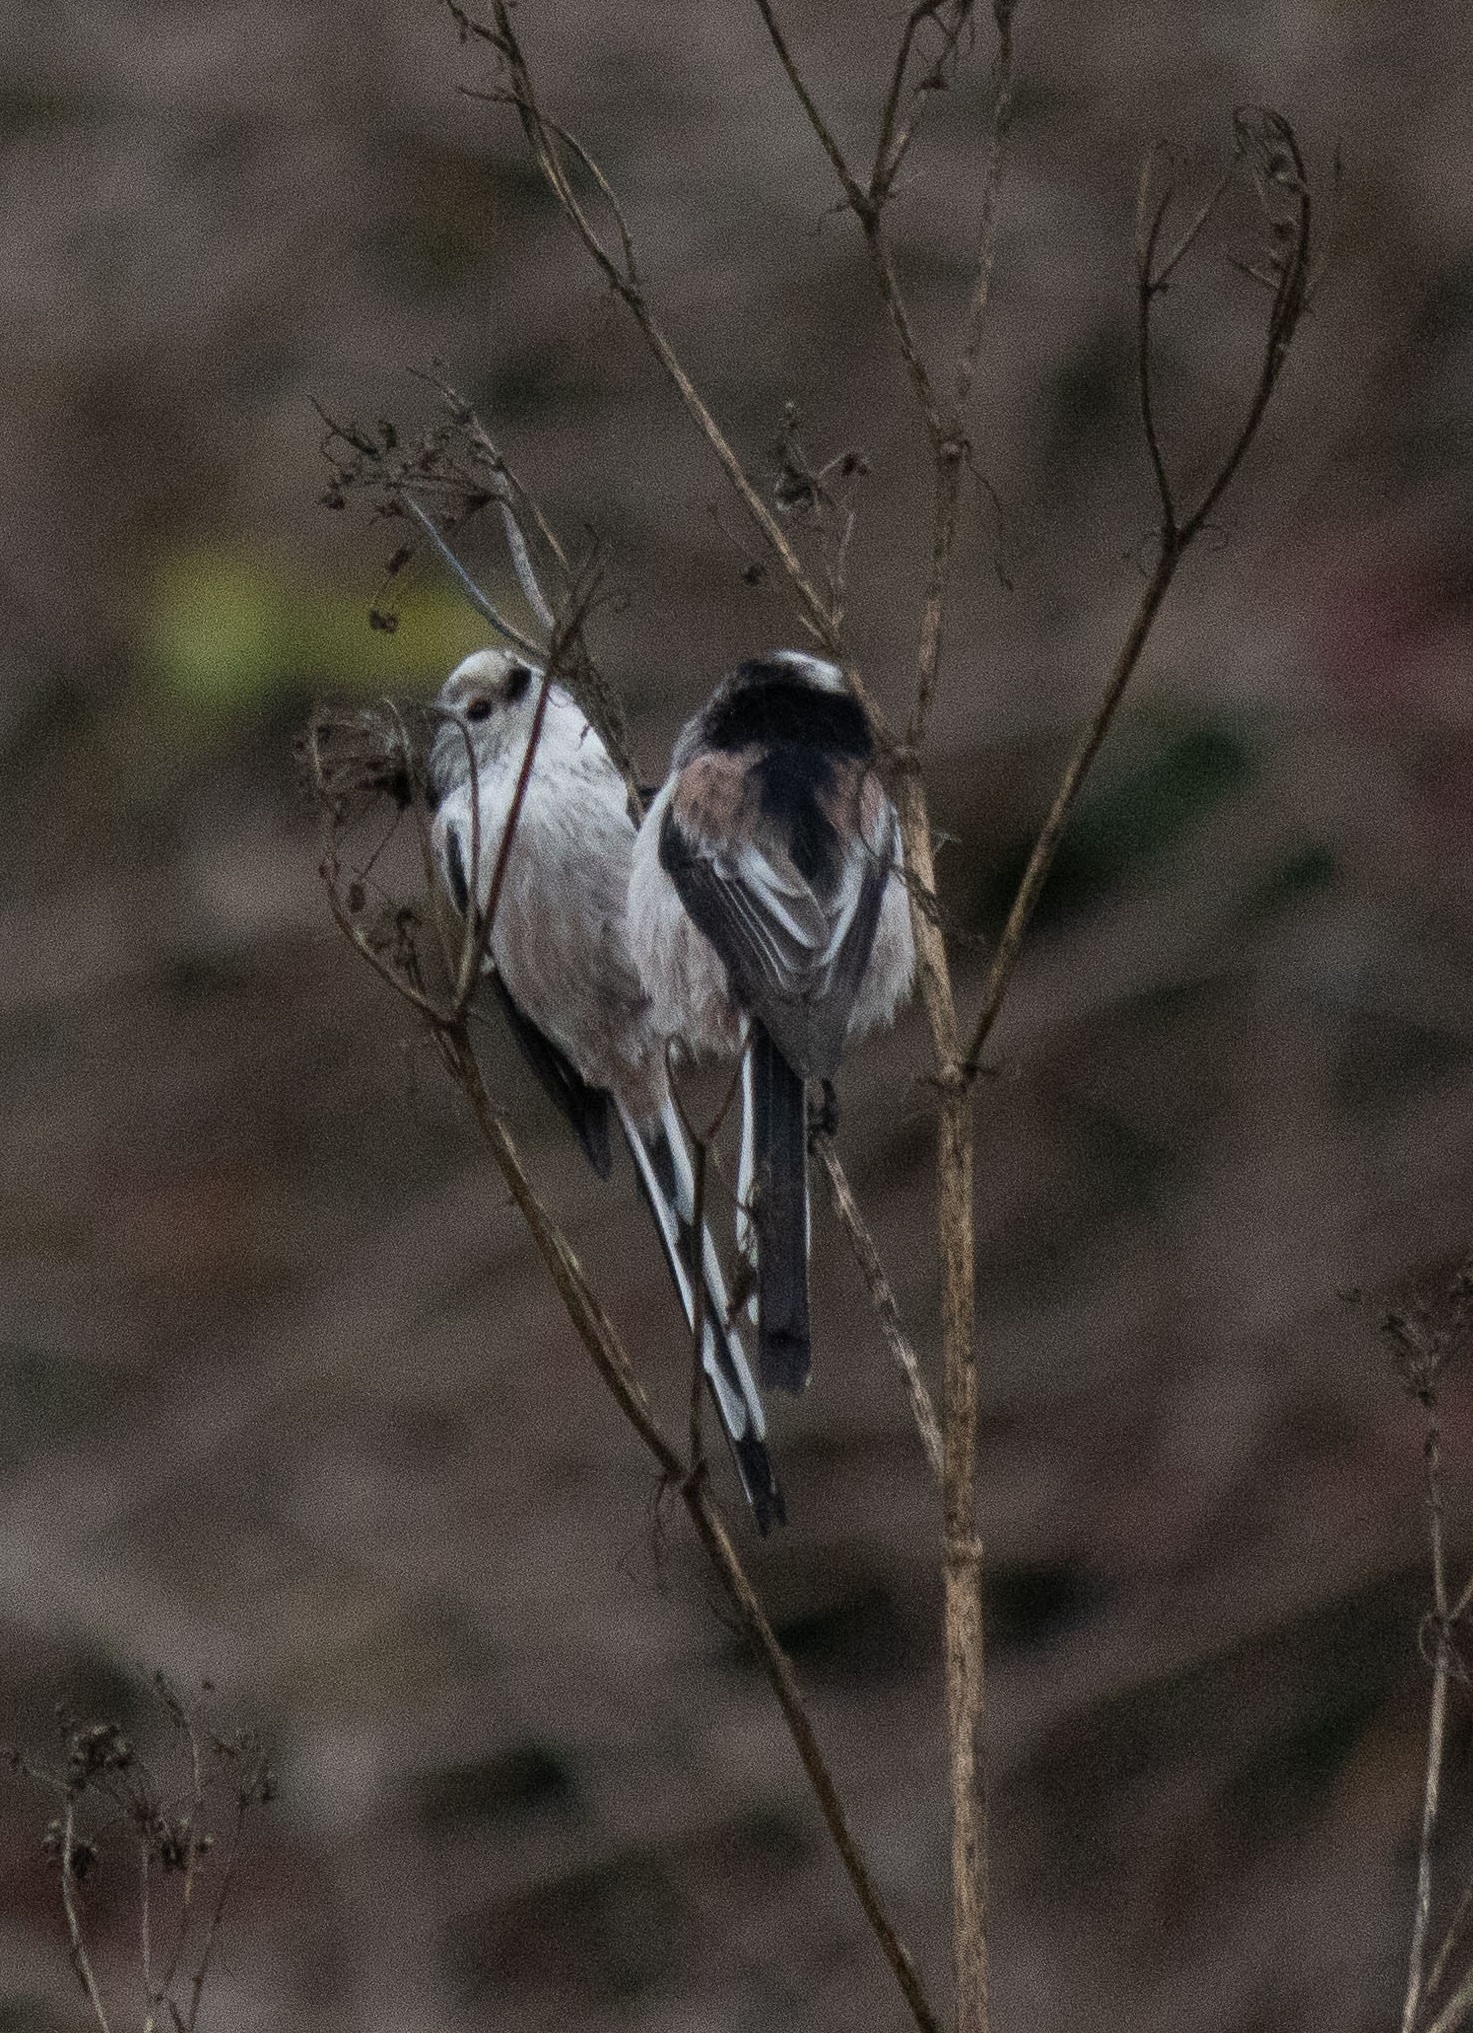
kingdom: Animalia
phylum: Chordata
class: Aves
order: Passeriformes
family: Aegithalidae
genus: Aegithalos
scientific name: Aegithalos caudatus
